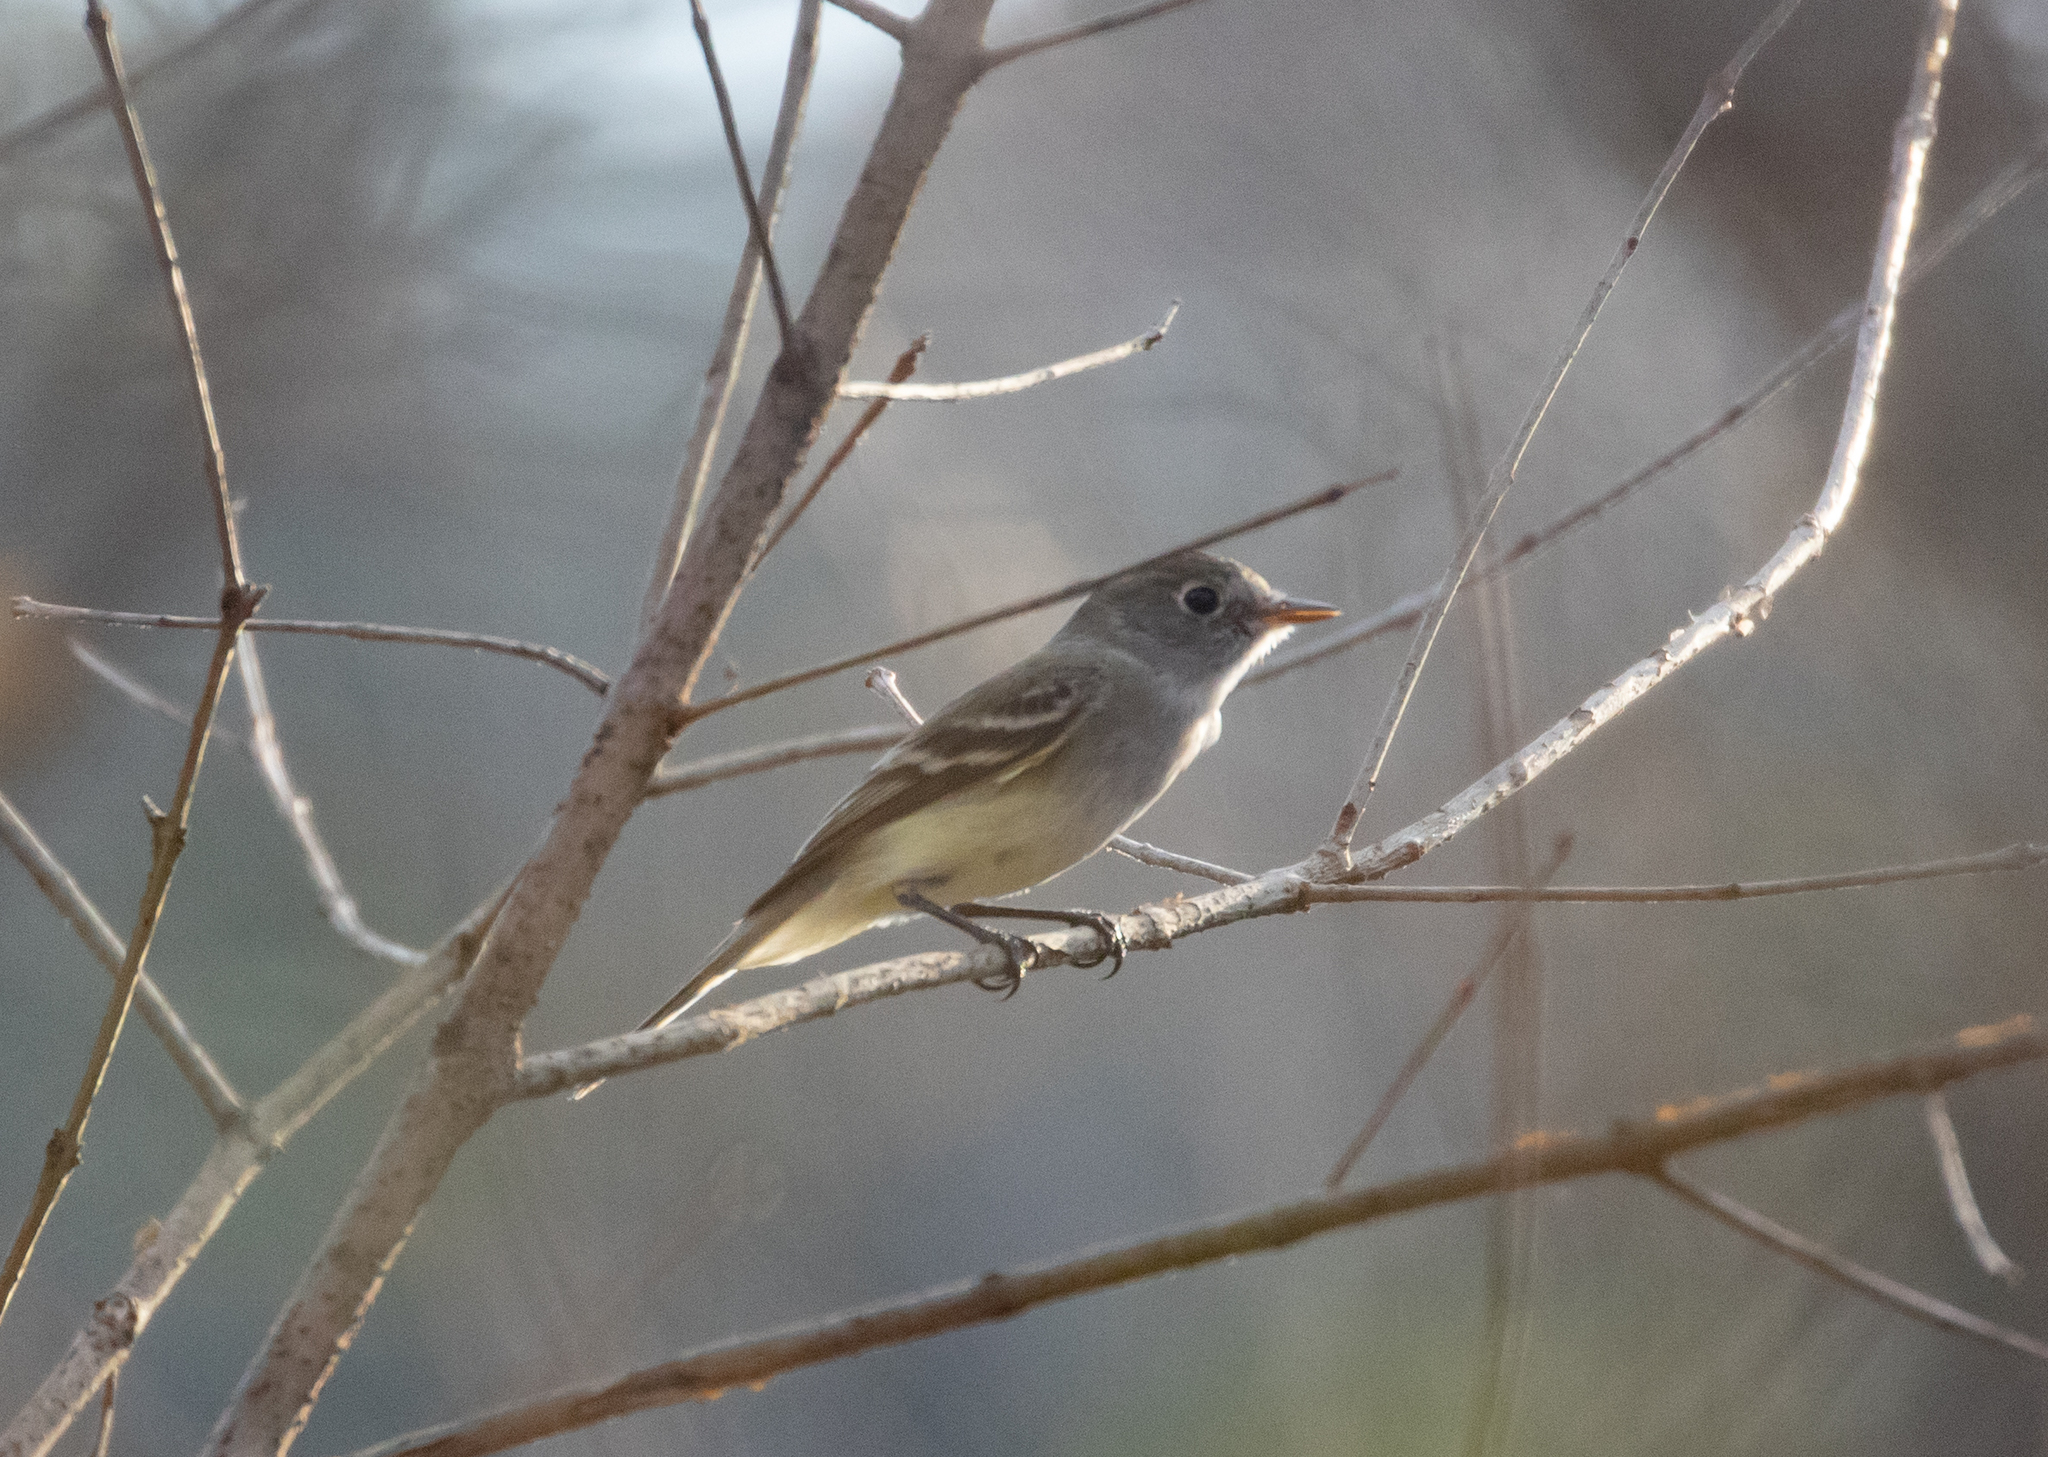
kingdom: Animalia
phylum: Chordata
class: Aves
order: Passeriformes
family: Tyrannidae
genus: Empidonax
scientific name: Empidonax minimus
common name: Least flycatcher
